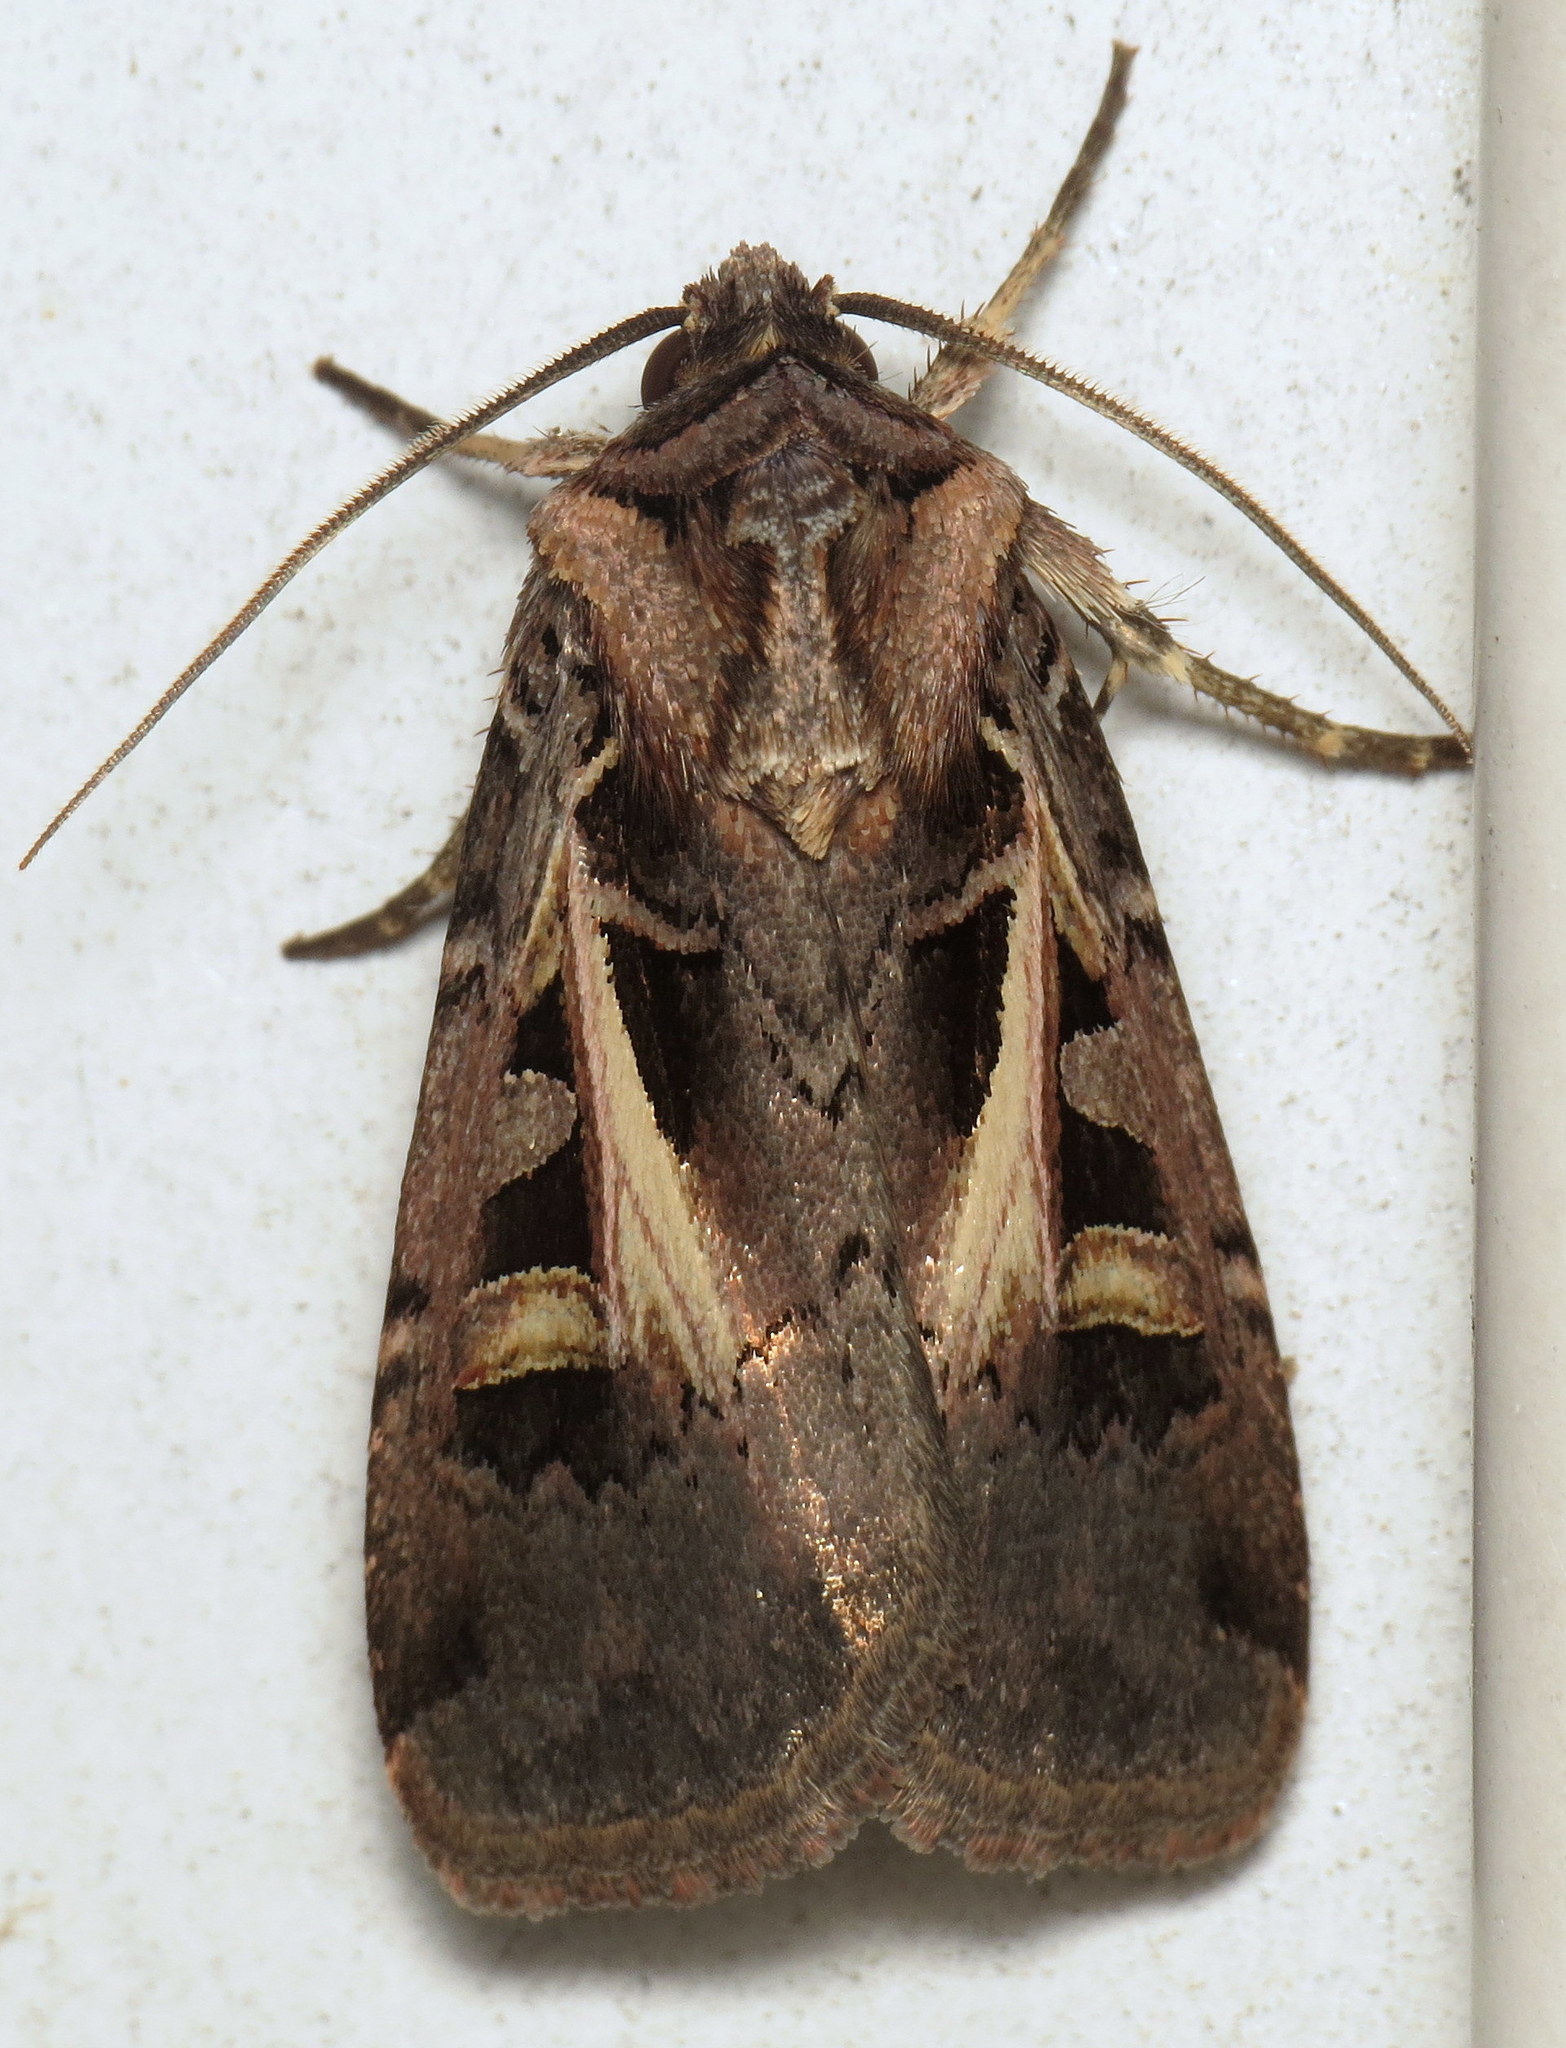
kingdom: Animalia
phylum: Arthropoda
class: Insecta
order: Lepidoptera
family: Noctuidae
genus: Feltia
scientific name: Feltia tricosa
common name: Confused dart moth
